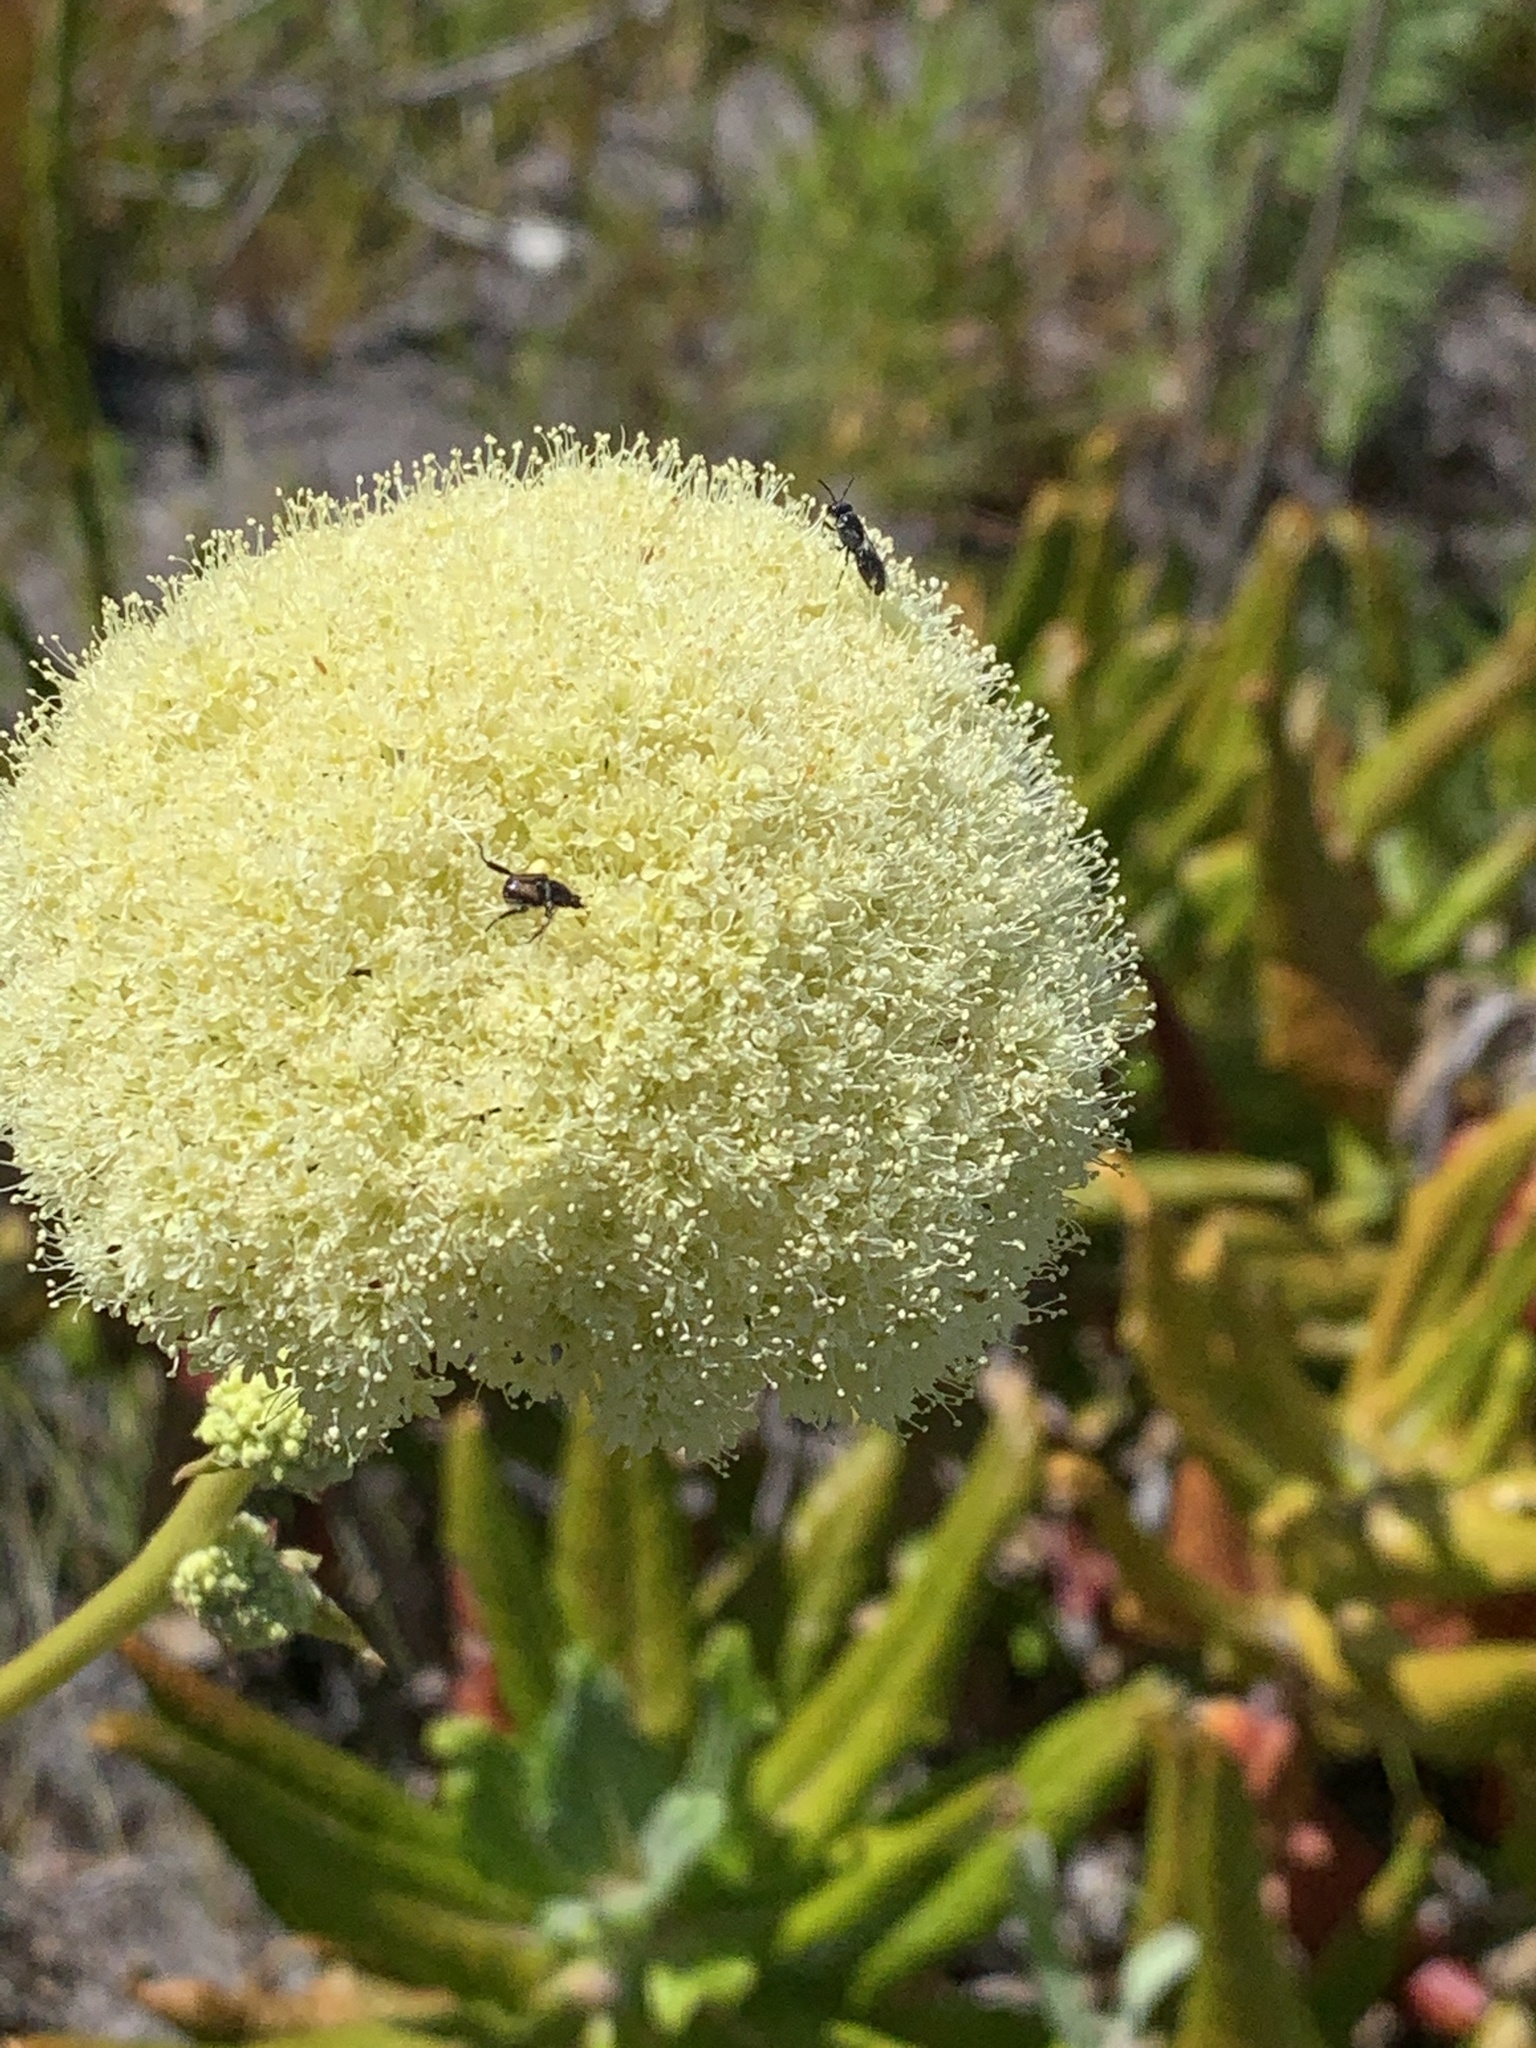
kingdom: Plantae
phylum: Tracheophyta
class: Magnoliopsida
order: Apiales
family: Apiaceae
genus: Hermas
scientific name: Hermas villosa
